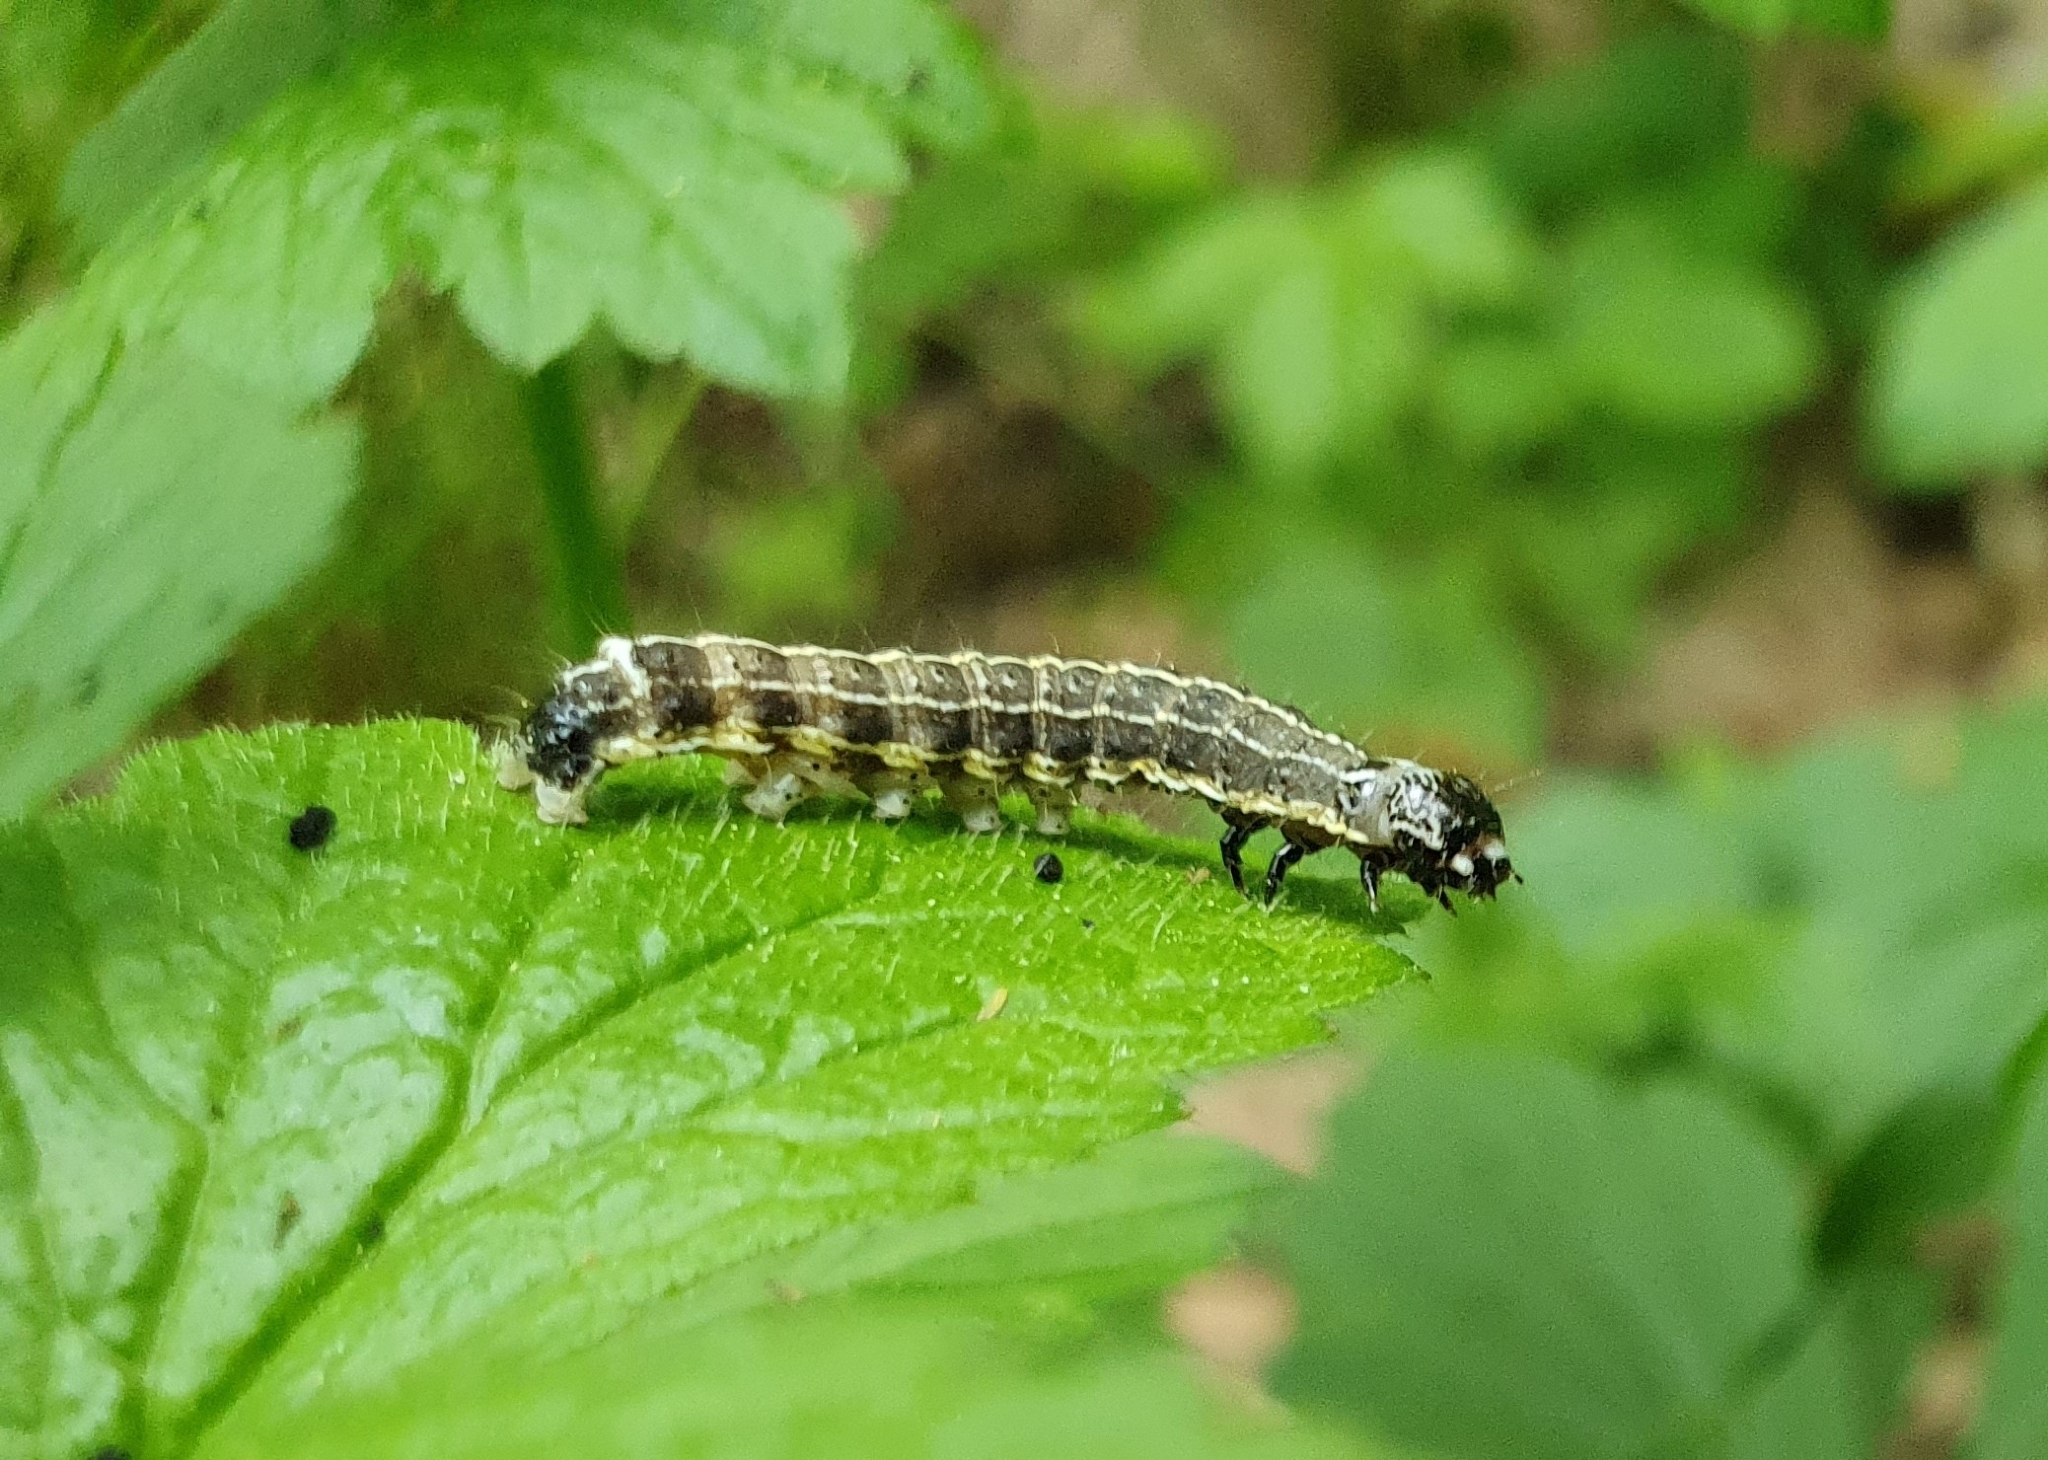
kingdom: Animalia
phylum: Arthropoda
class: Insecta
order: Lepidoptera
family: Noctuidae
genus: Orthosia
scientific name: Orthosia cruda
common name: Small quaker
